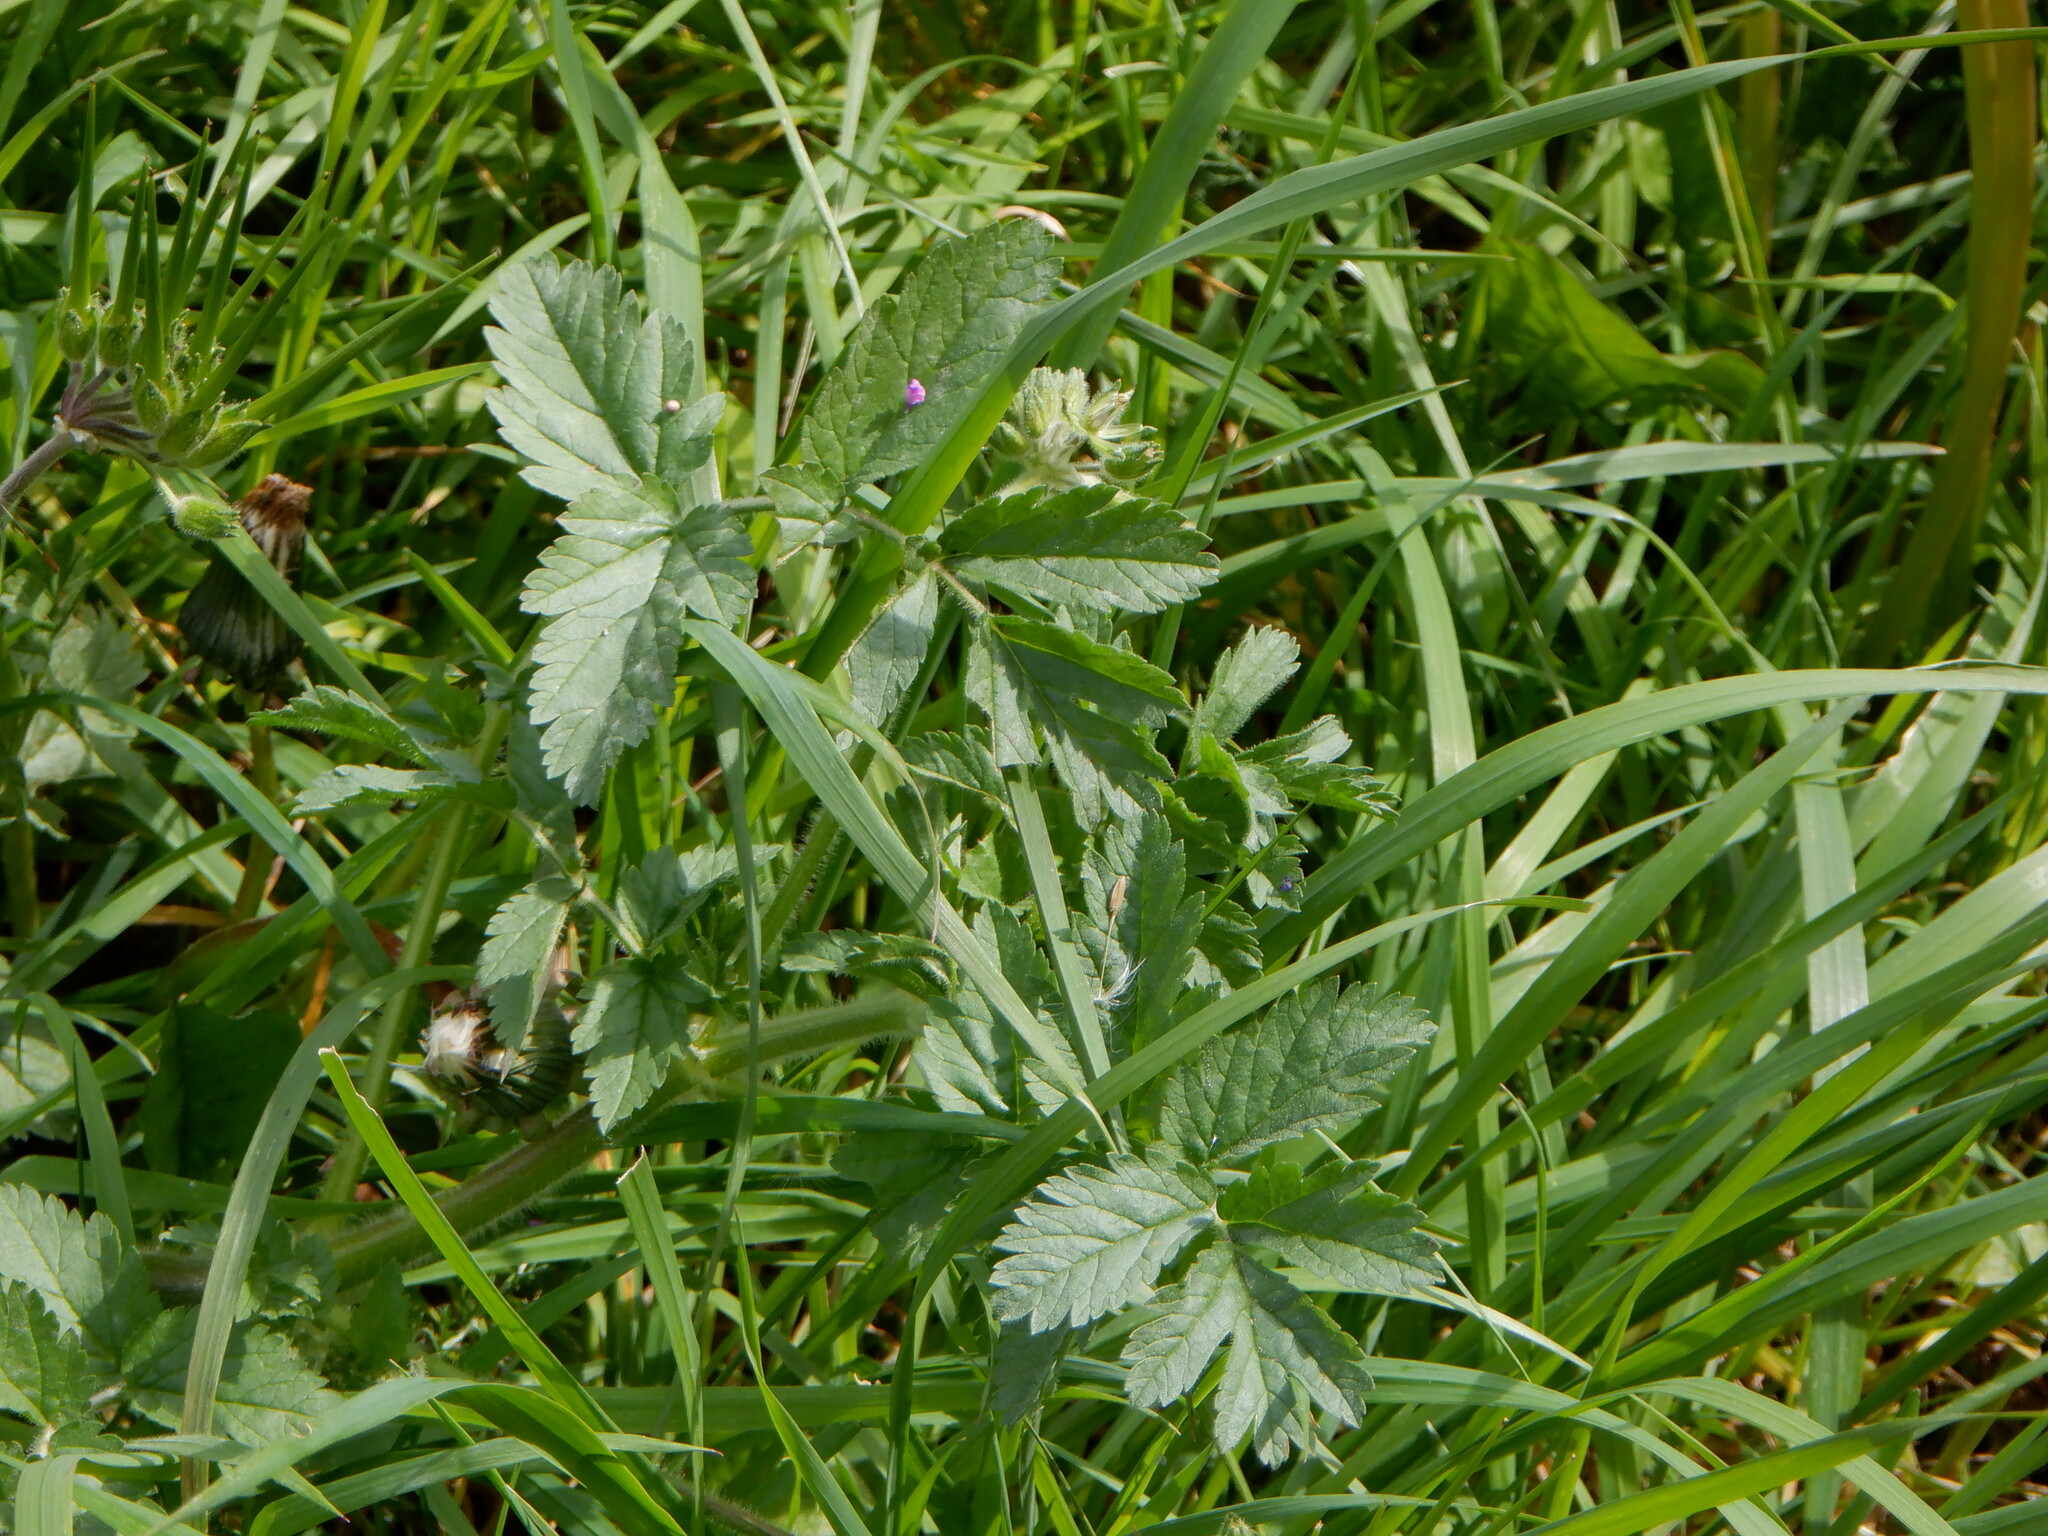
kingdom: Plantae
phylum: Tracheophyta
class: Magnoliopsida
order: Apiales
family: Apiaceae
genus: Pastinaca
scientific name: Pastinaca sativa
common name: Wild parsnip
